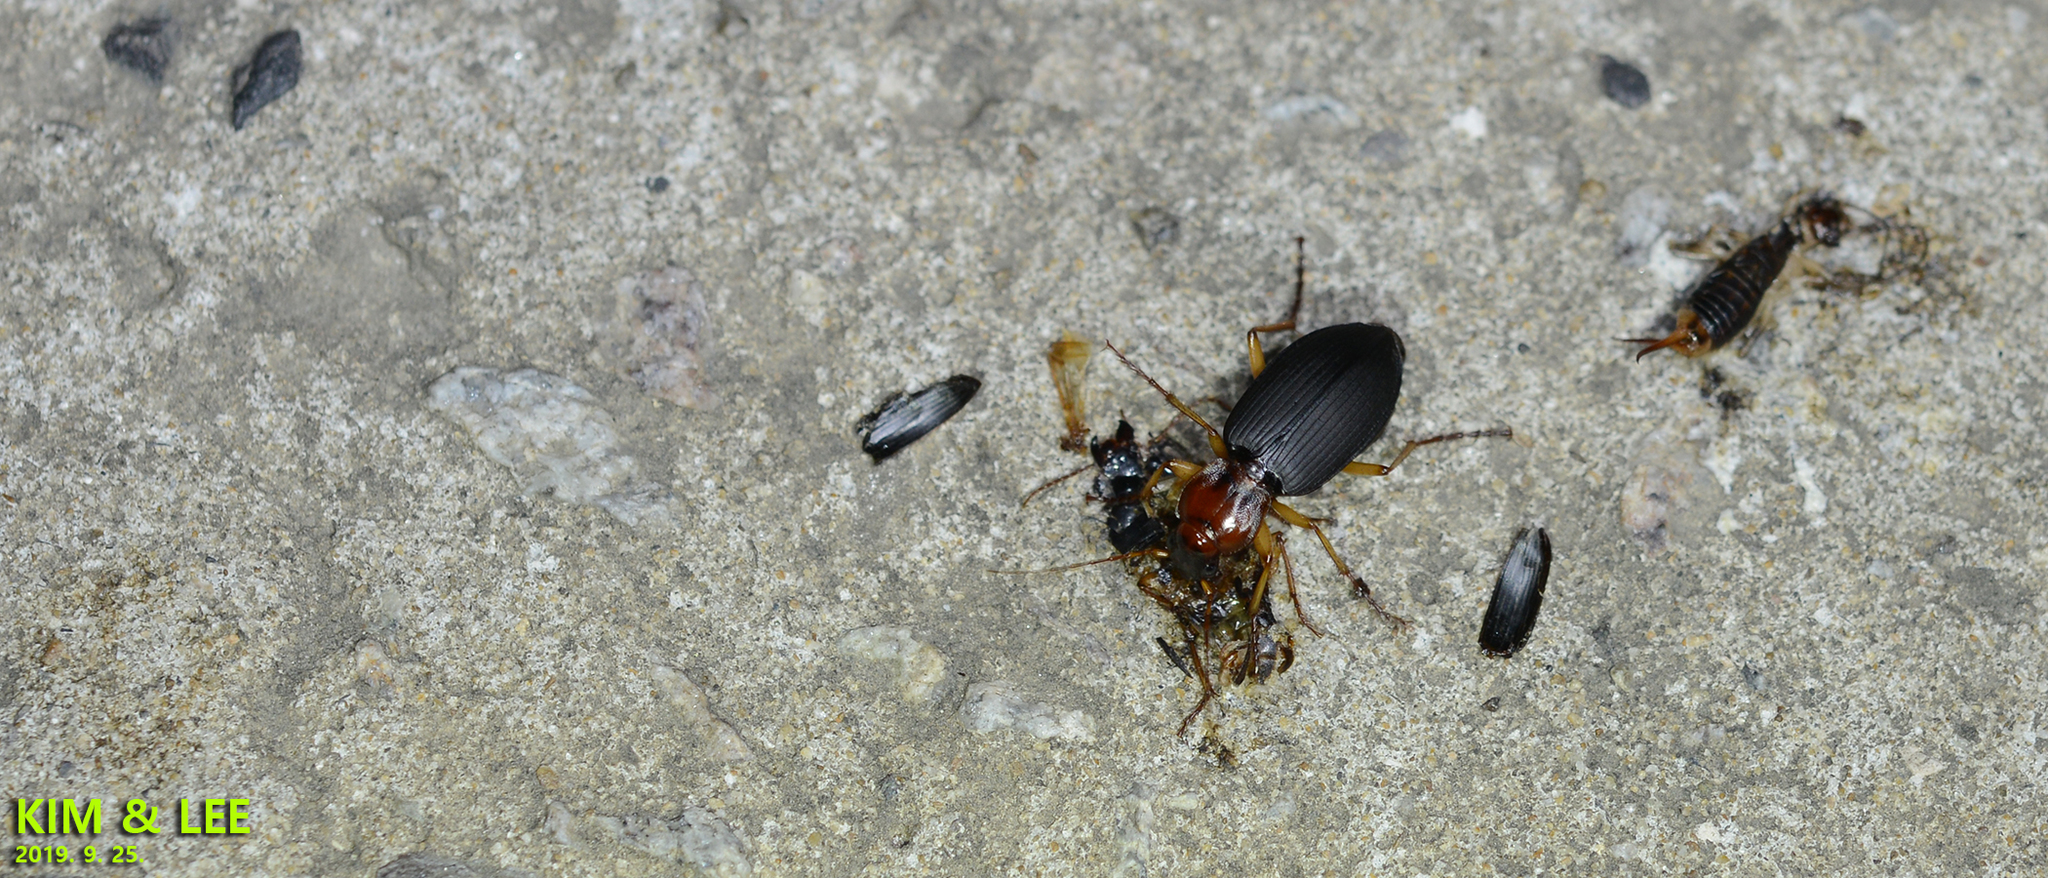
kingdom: Animalia
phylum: Arthropoda
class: Insecta
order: Coleoptera
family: Carabidae
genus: Dolichus
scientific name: Dolichus halensis
